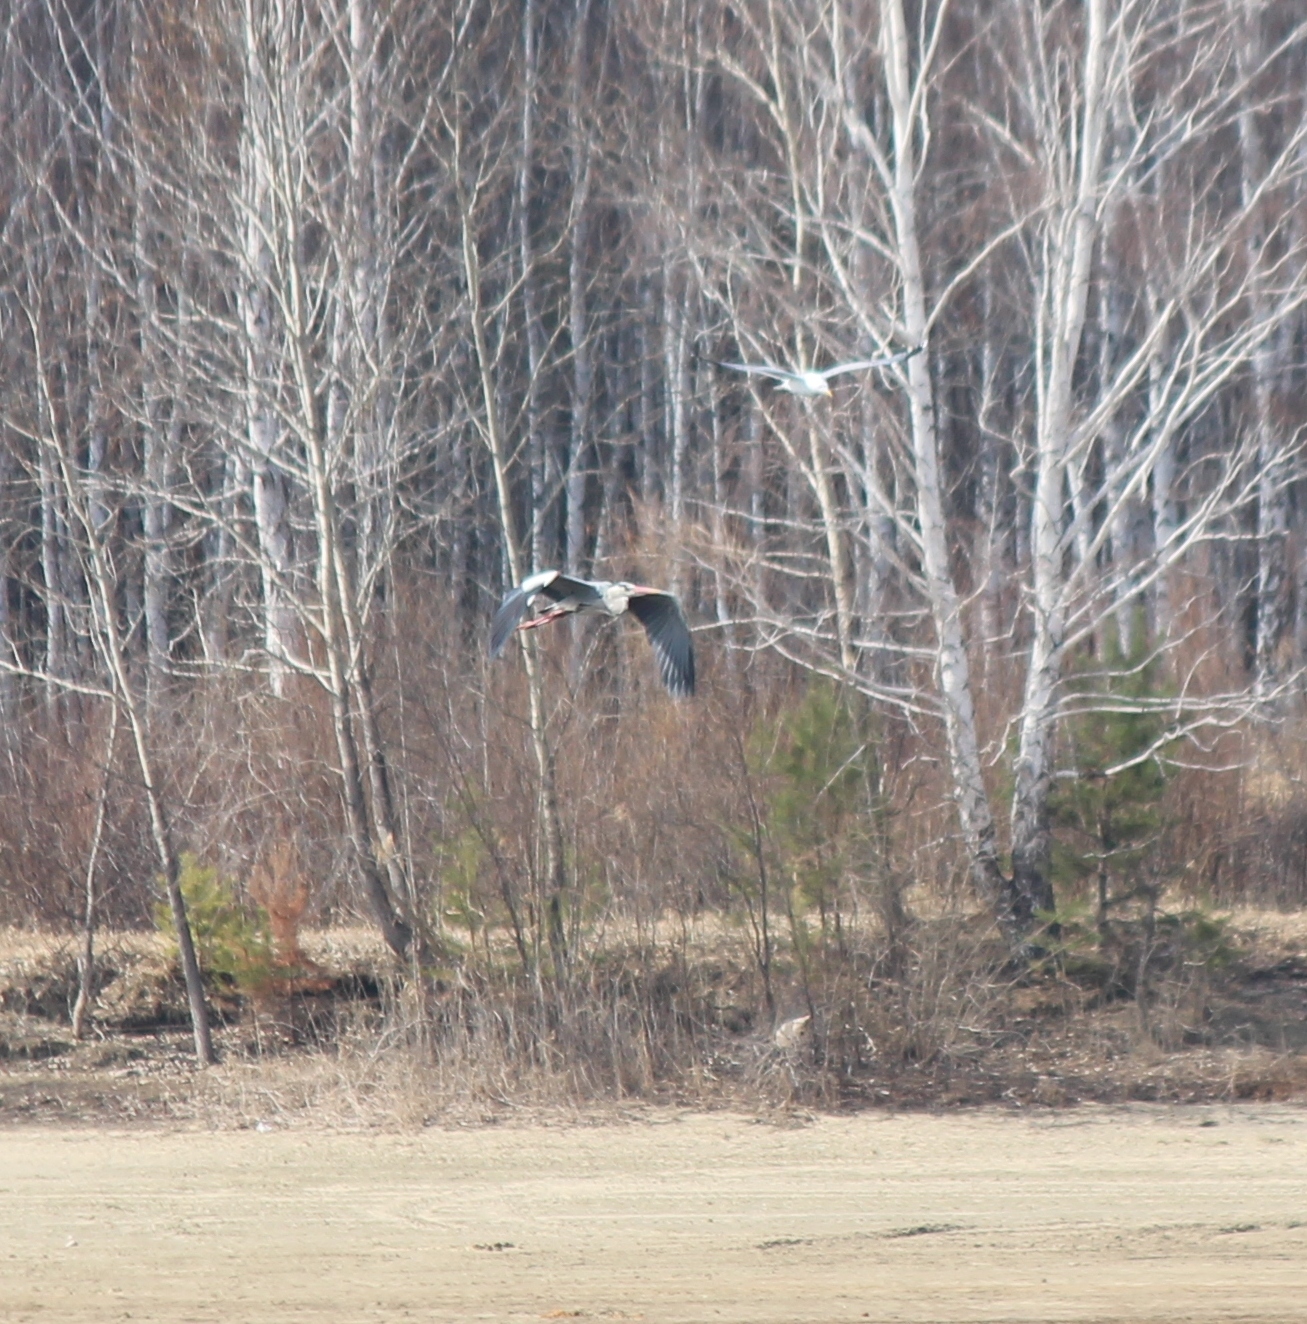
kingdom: Animalia
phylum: Chordata
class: Aves
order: Pelecaniformes
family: Ardeidae
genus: Ardea
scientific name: Ardea cinerea
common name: Grey heron
